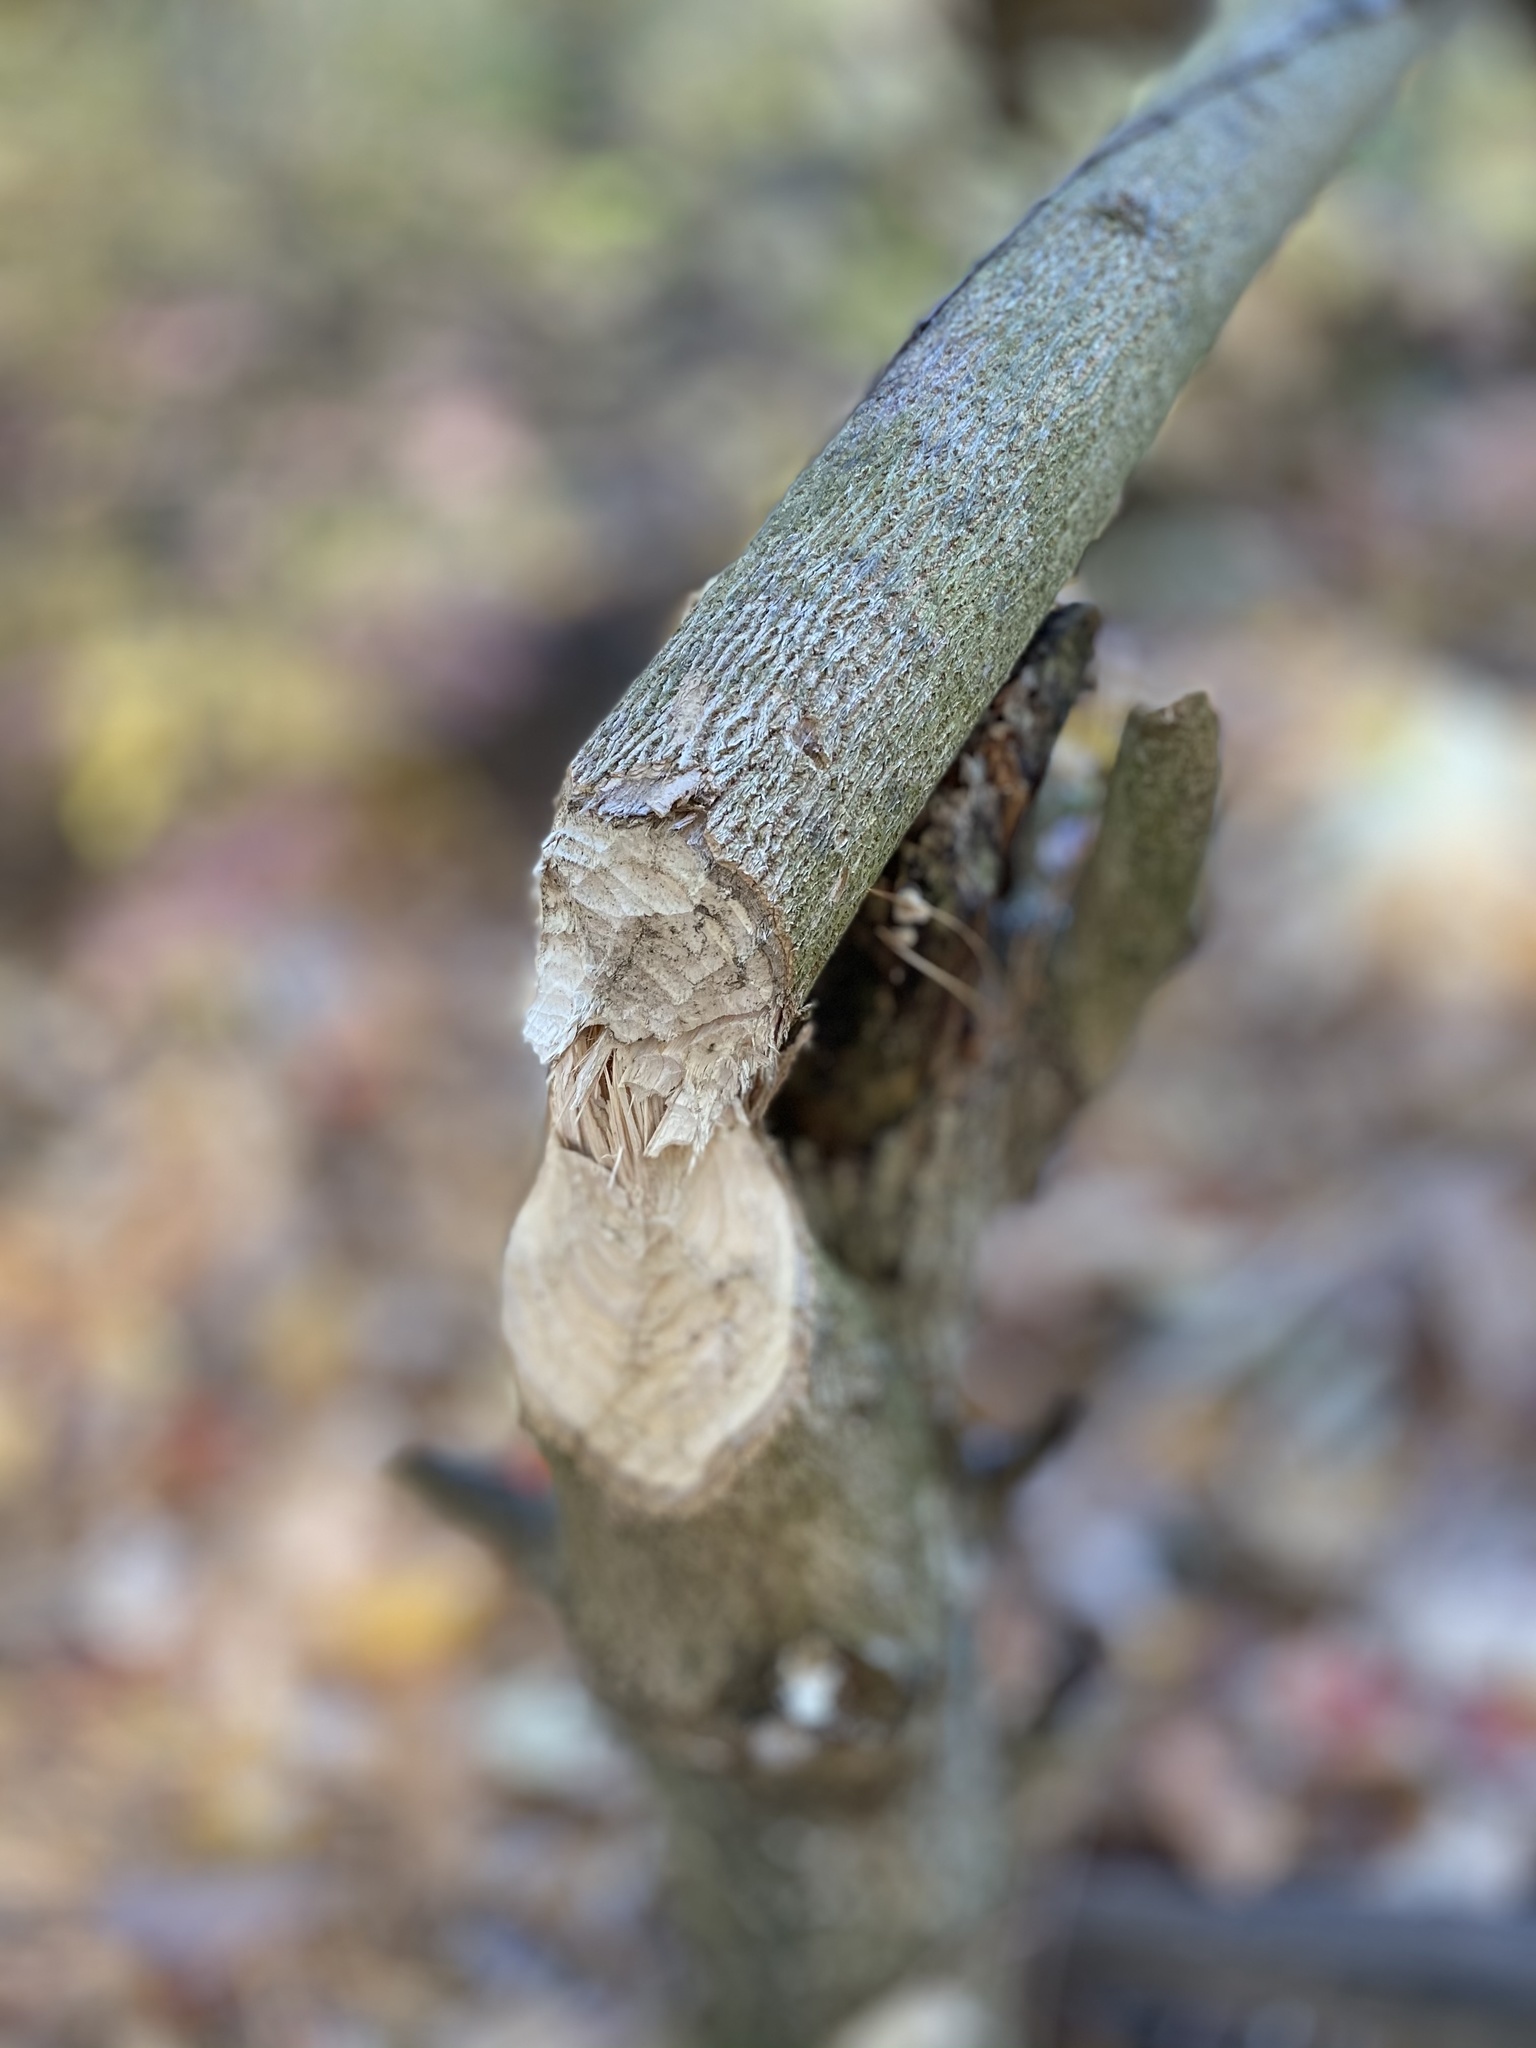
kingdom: Animalia
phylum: Chordata
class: Mammalia
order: Rodentia
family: Castoridae
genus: Castor
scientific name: Castor canadensis
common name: American beaver
